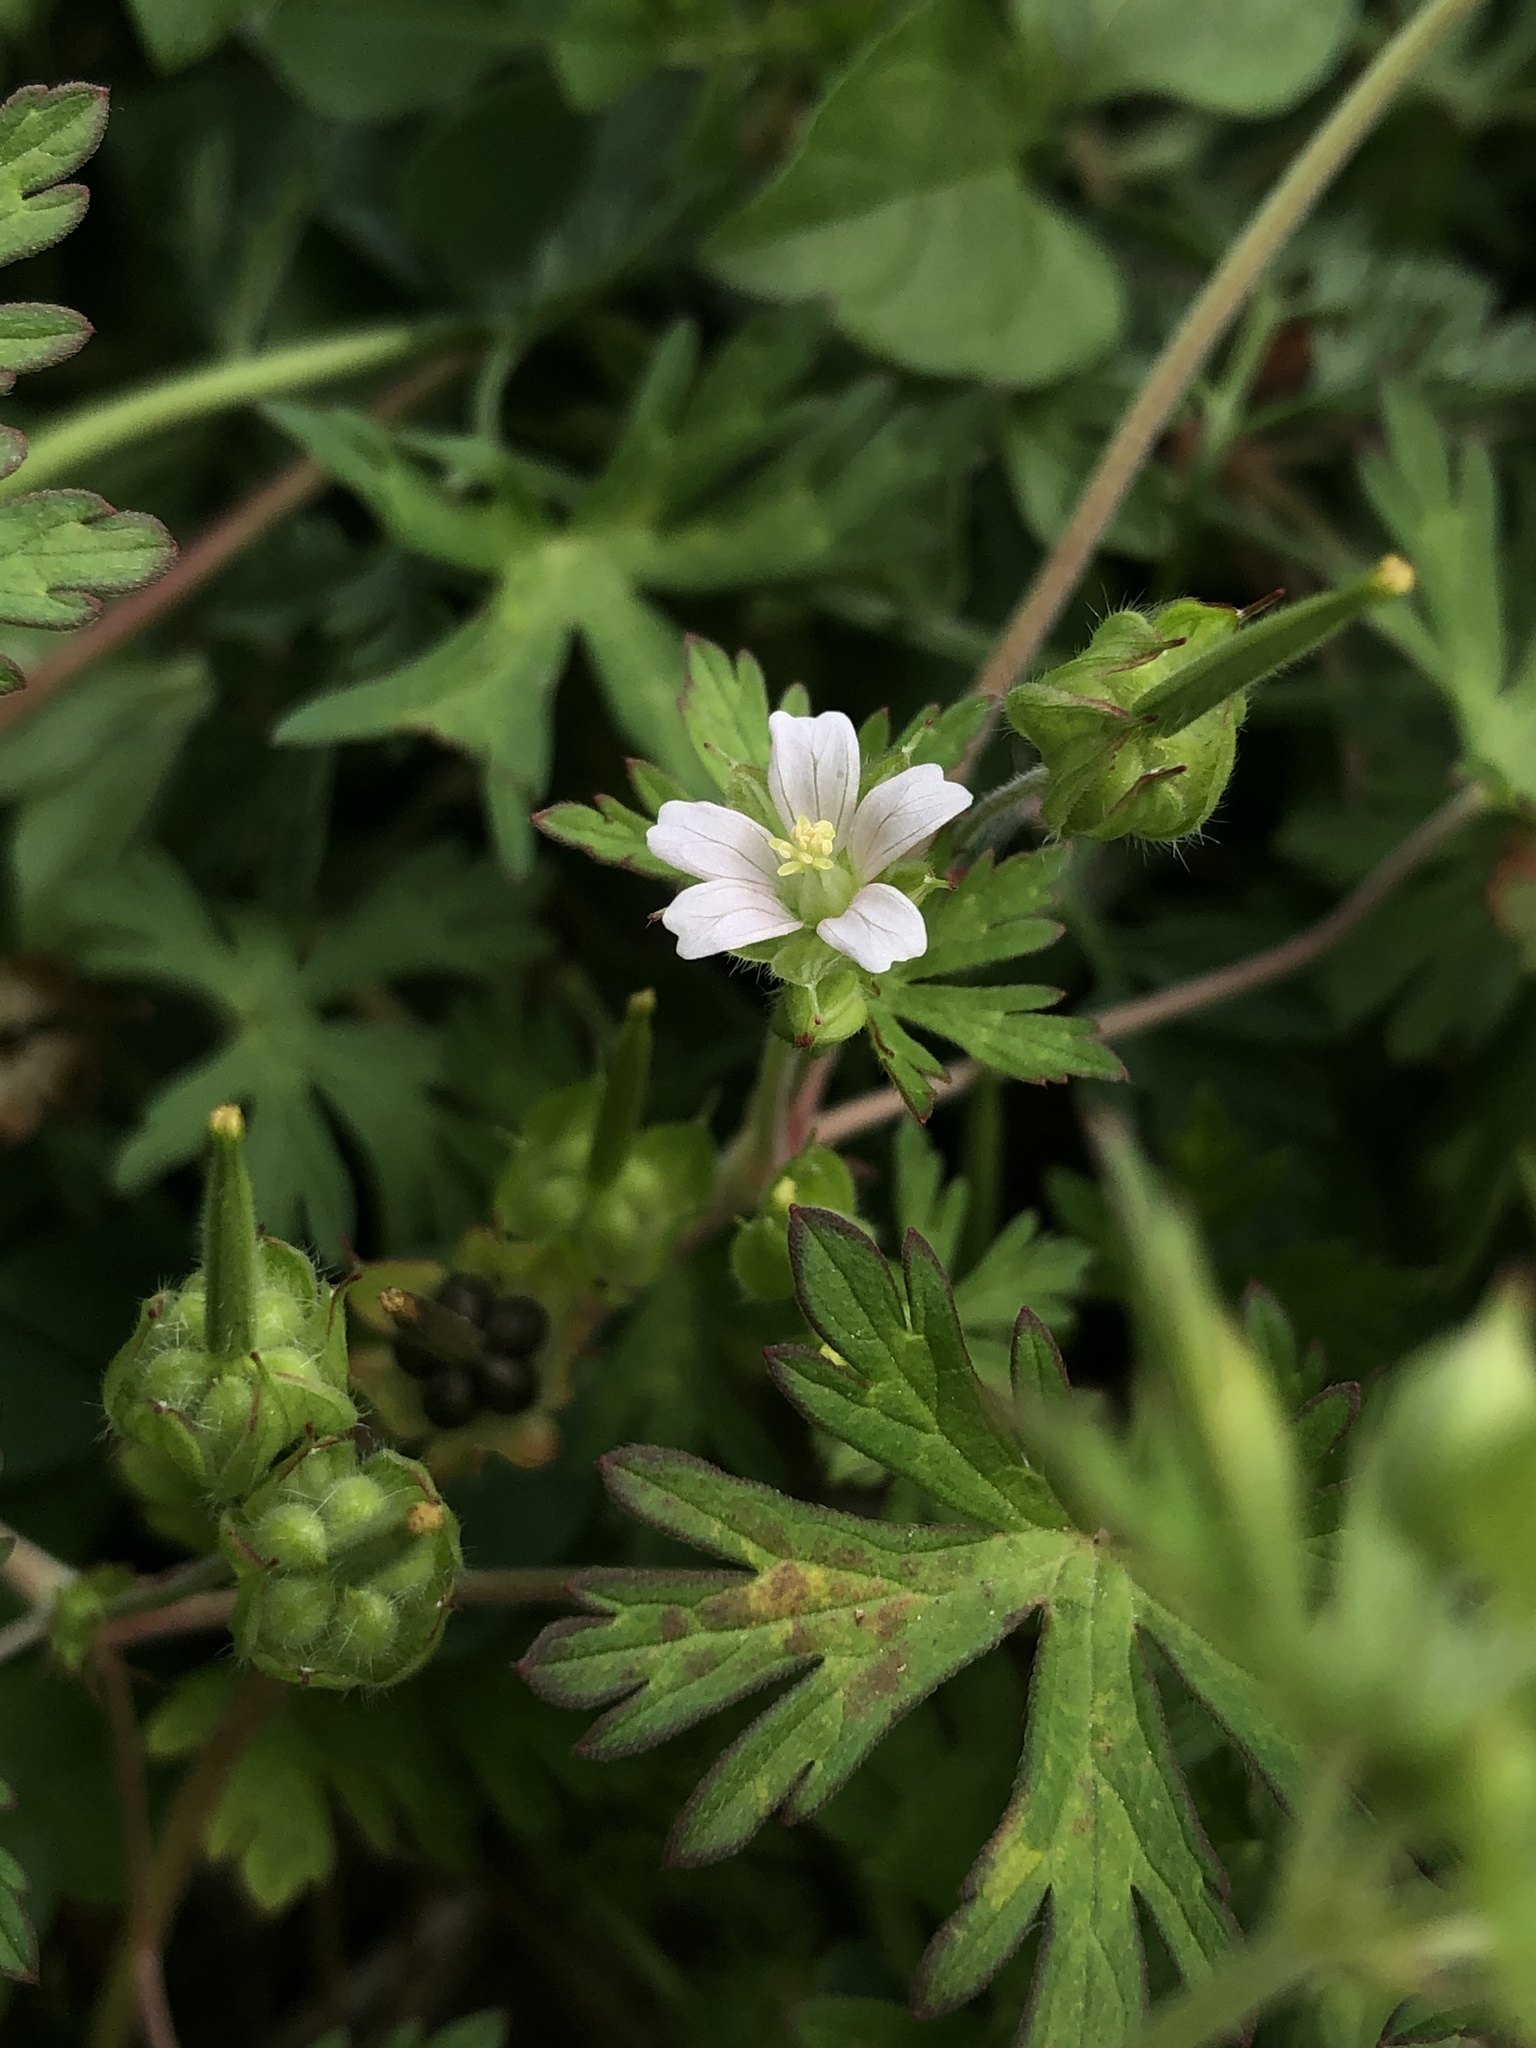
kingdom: Plantae
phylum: Tracheophyta
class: Magnoliopsida
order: Geraniales
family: Geraniaceae
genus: Geranium
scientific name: Geranium carolinianum
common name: Carolina crane's-bill
